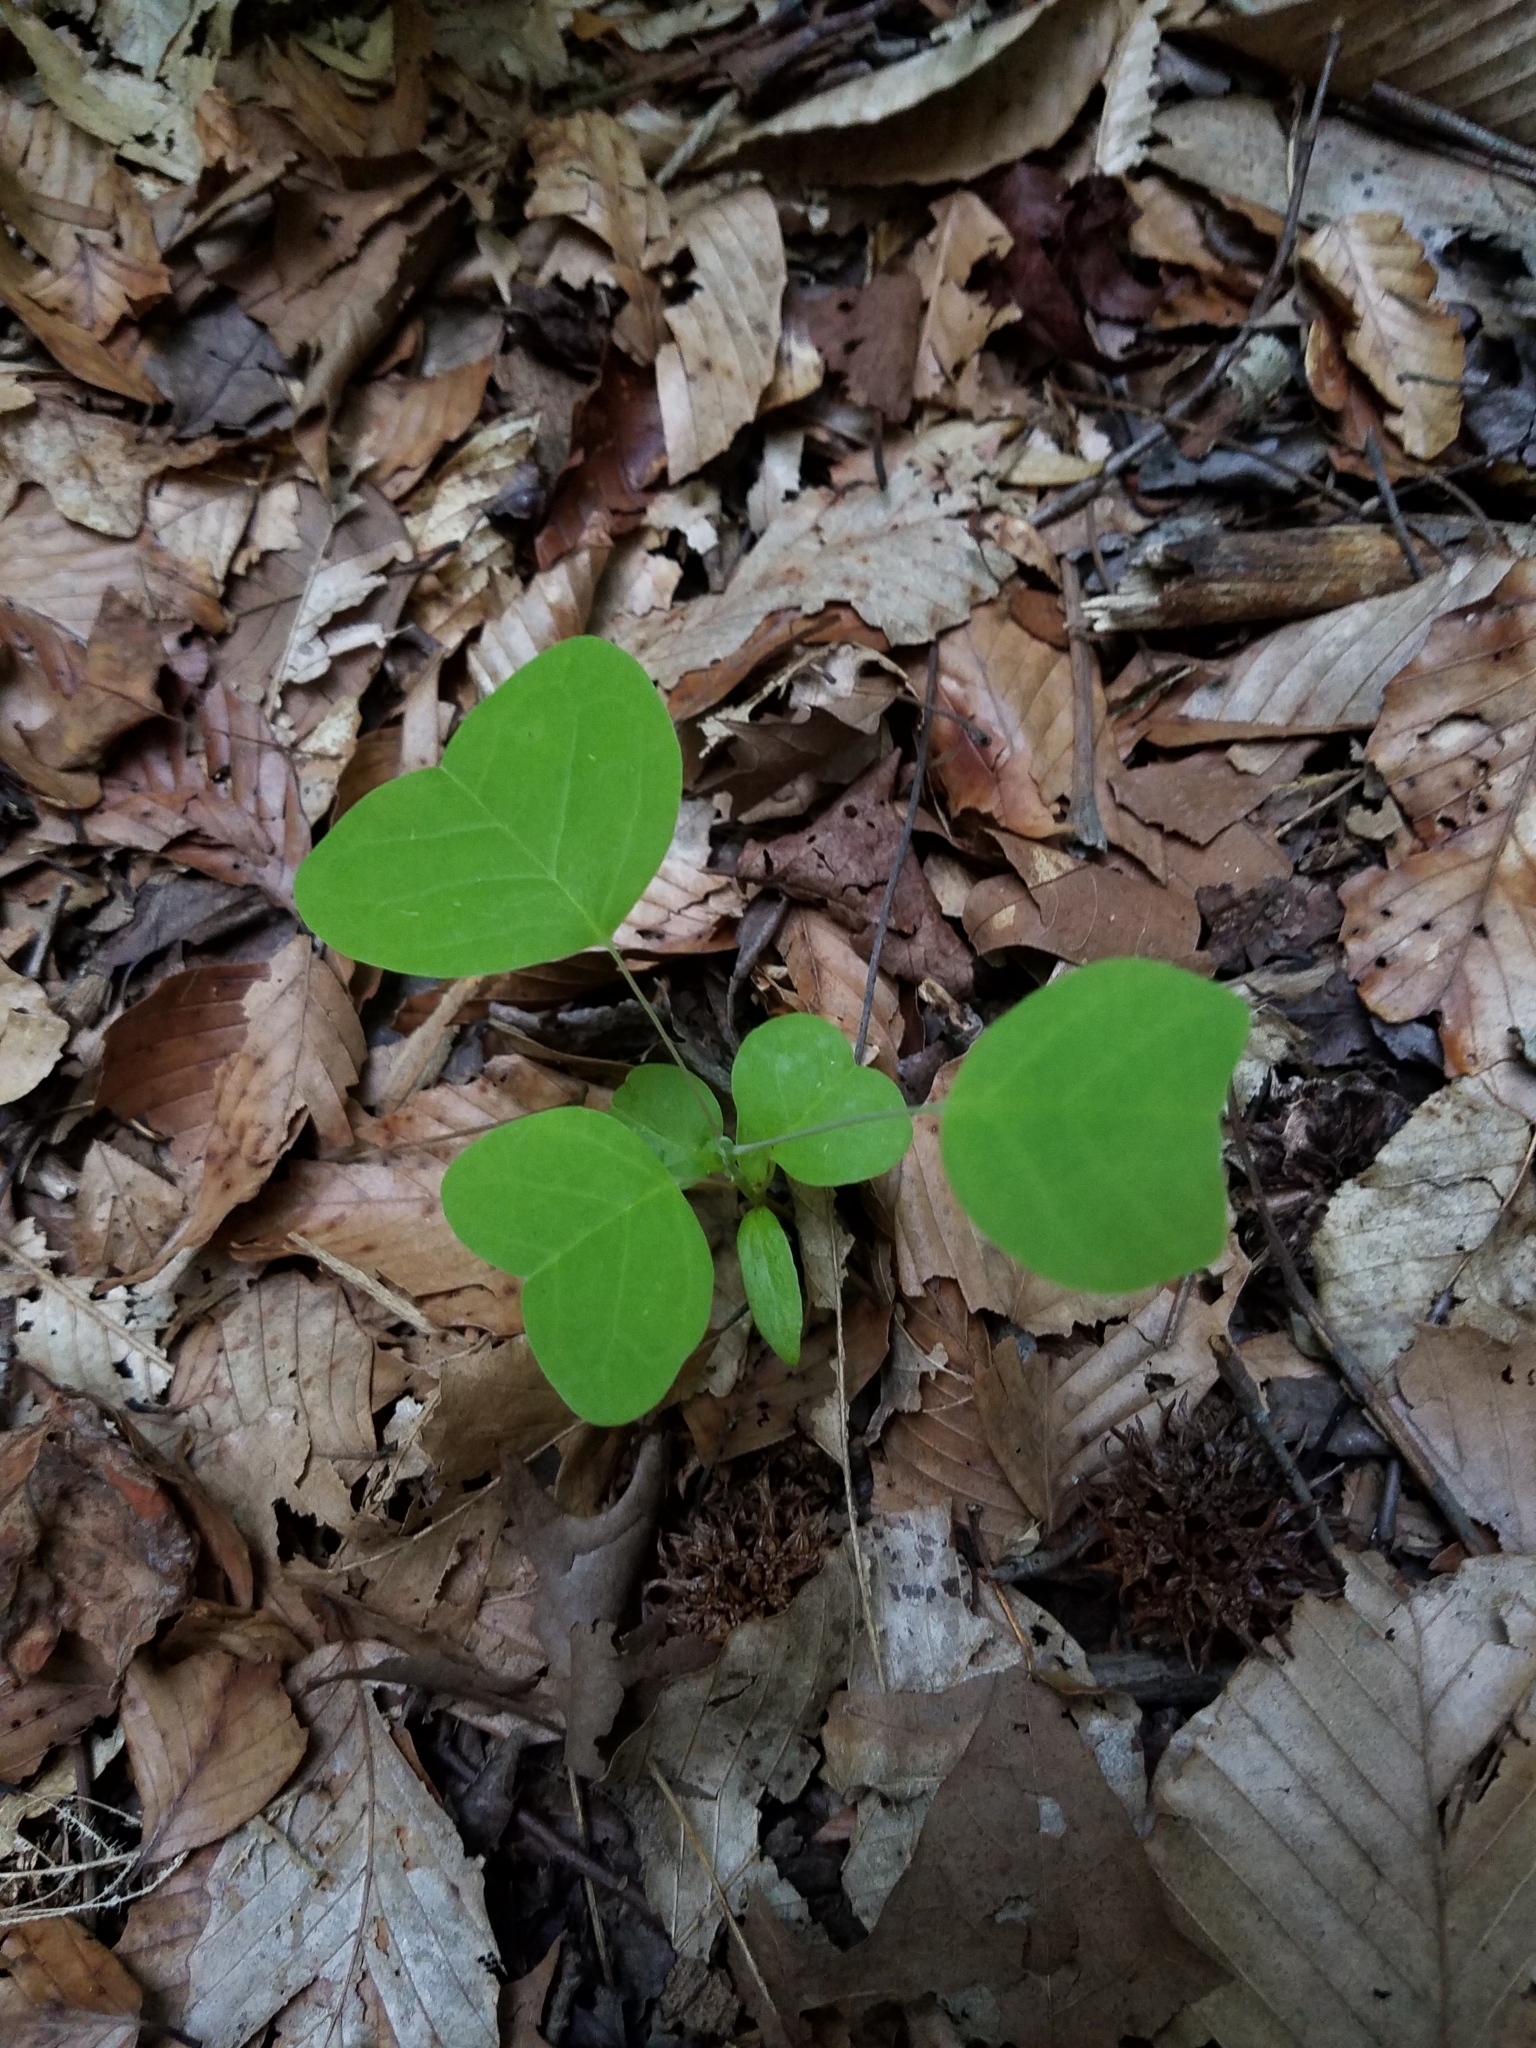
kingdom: Plantae
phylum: Tracheophyta
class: Magnoliopsida
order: Magnoliales
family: Magnoliaceae
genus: Liriodendron
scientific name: Liriodendron tulipifera
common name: Tulip tree
